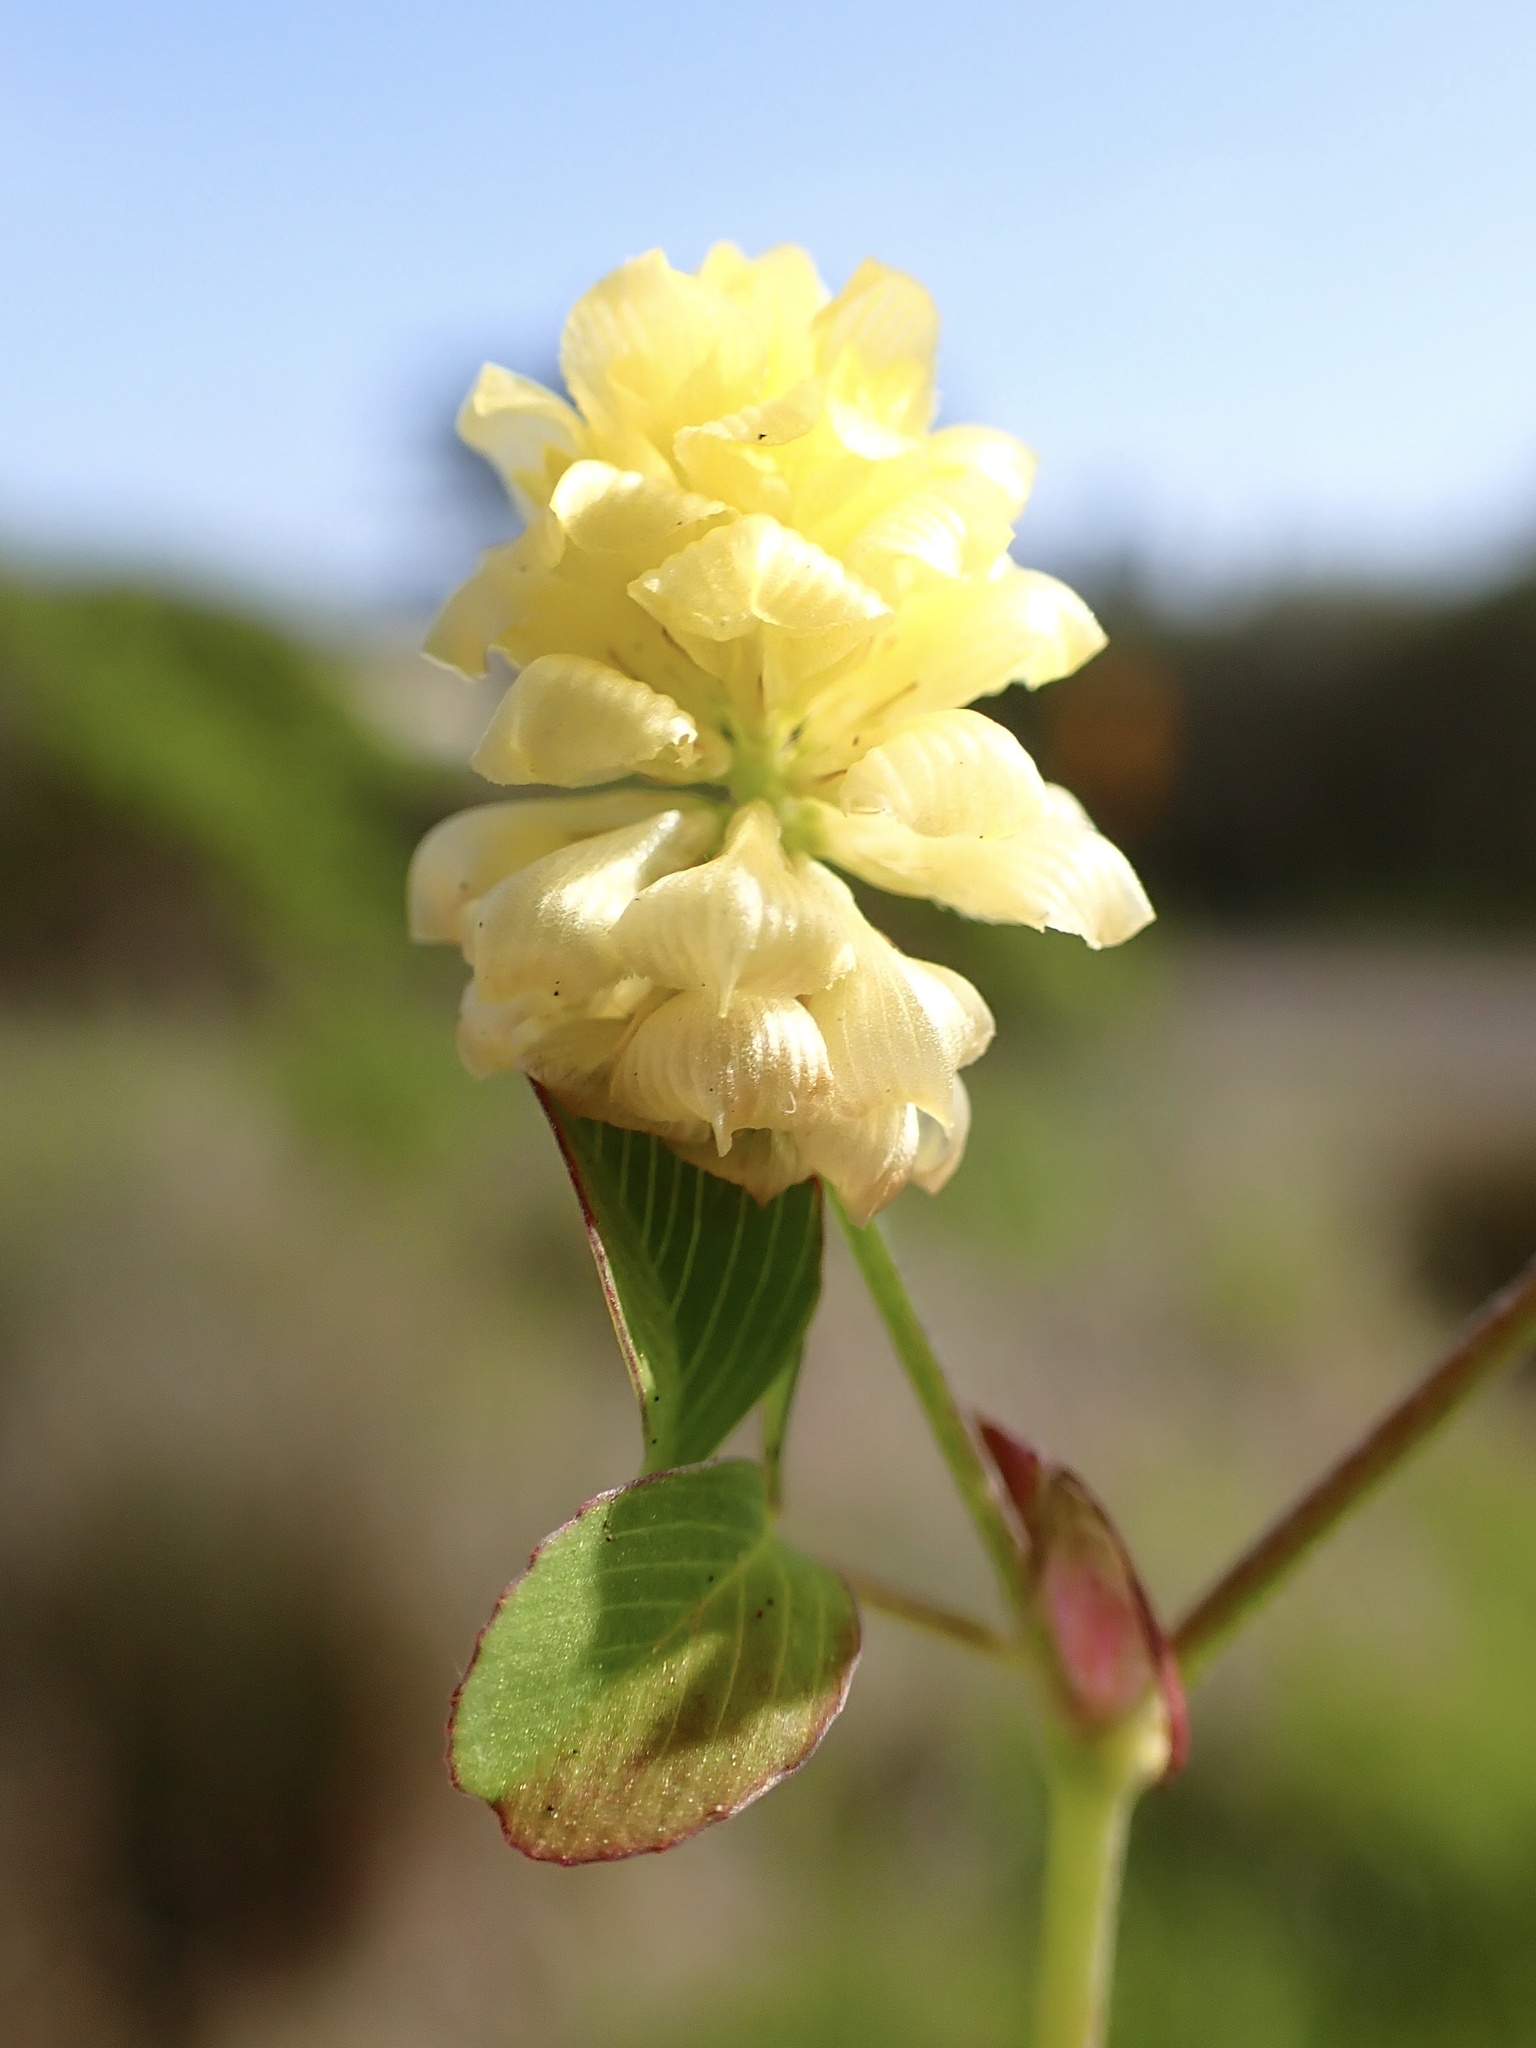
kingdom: Plantae
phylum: Tracheophyta
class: Magnoliopsida
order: Fabales
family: Fabaceae
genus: Trifolium
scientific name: Trifolium campestre
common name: Field clover
